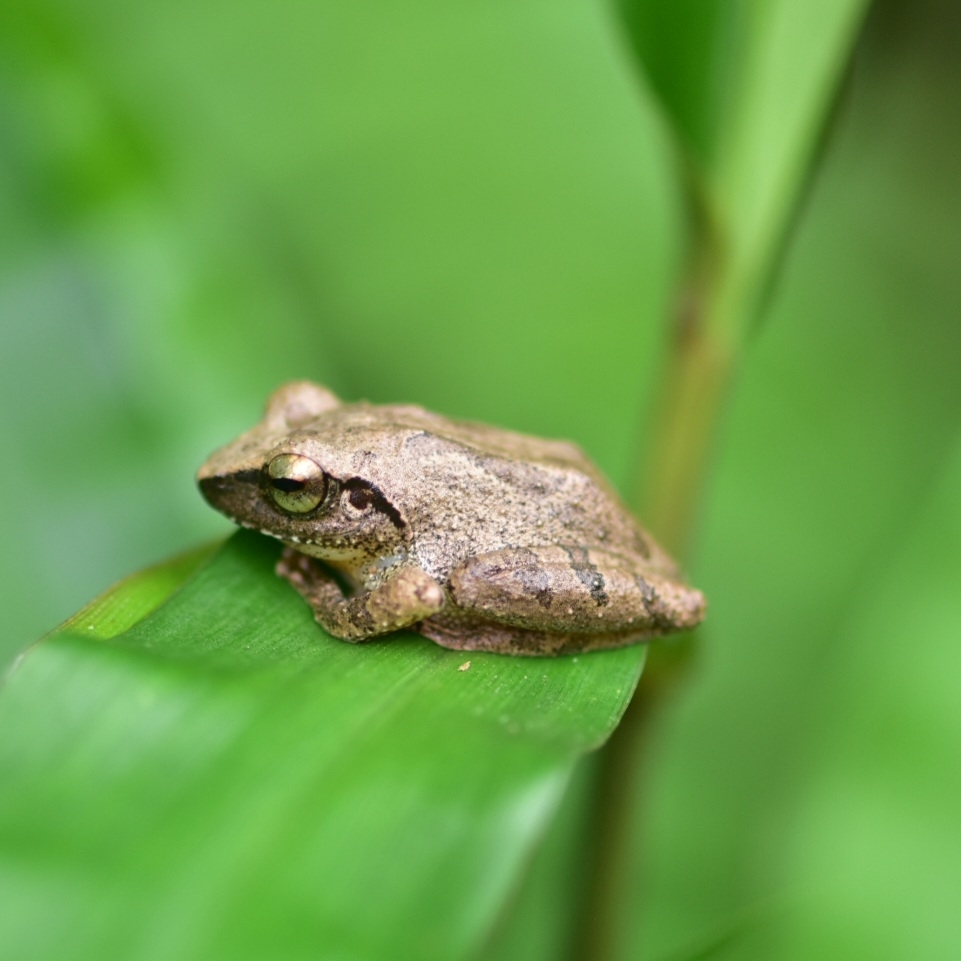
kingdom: Animalia
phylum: Chordata
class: Amphibia
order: Anura
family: Rhacophoridae
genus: Pseudophilautus
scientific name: Pseudophilautus wynaadensis
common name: Dark-eared bush frog
